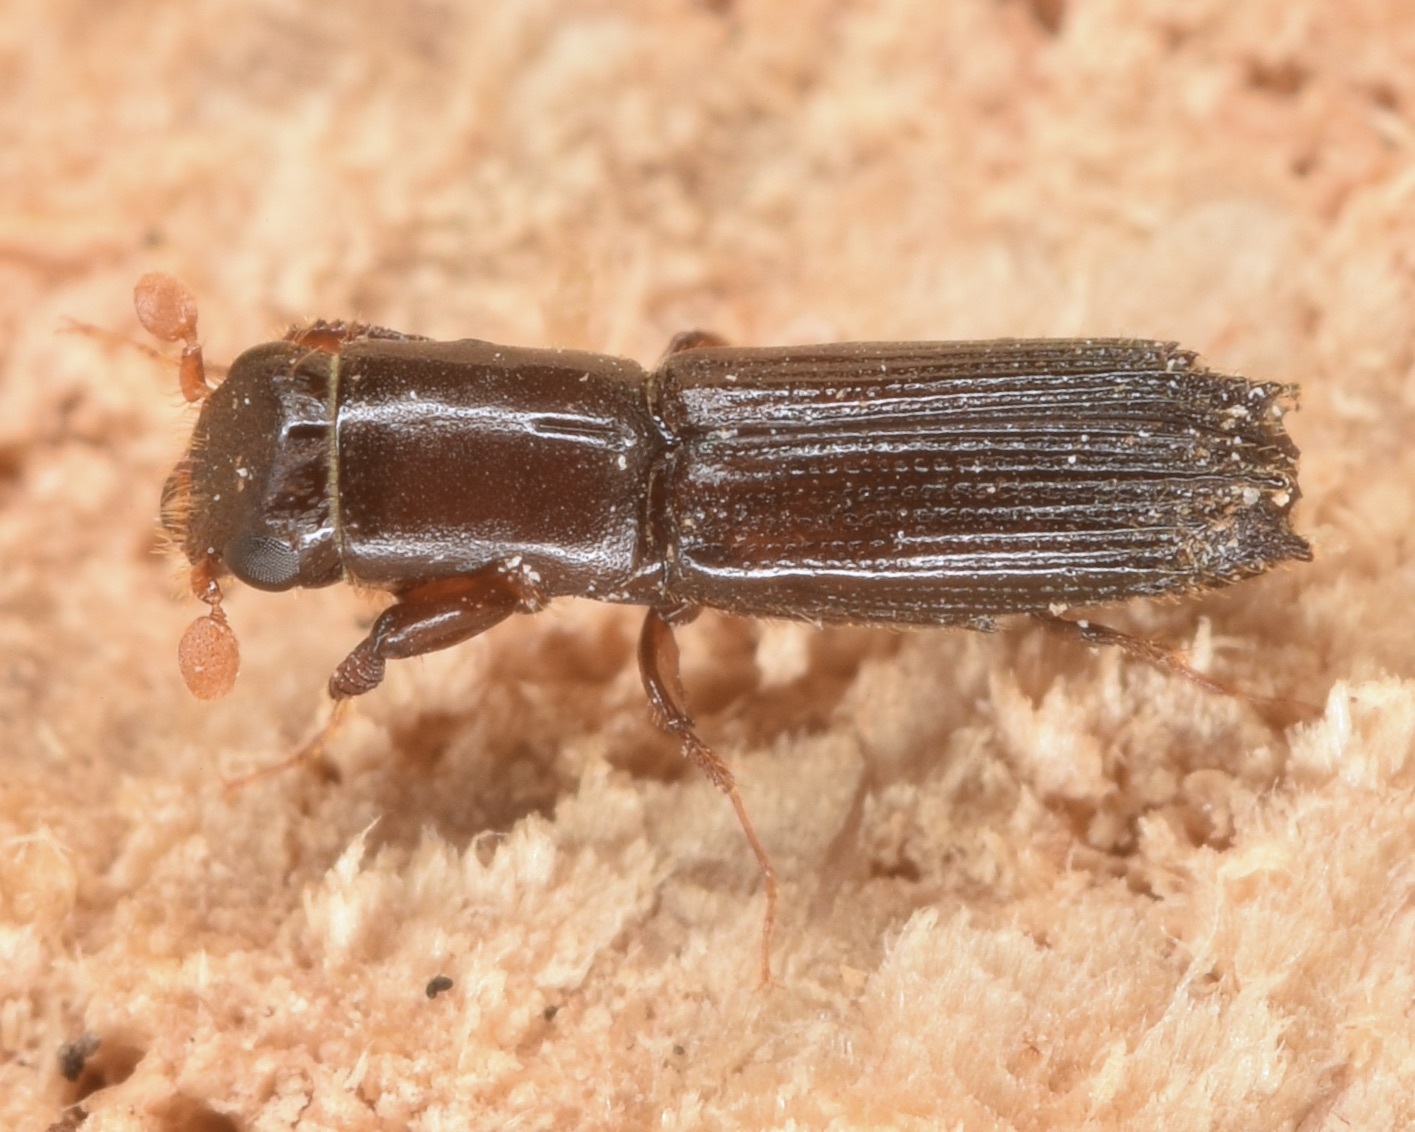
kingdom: Animalia
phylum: Arthropoda
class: Insecta
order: Coleoptera
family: Curculionidae
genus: Oxoplatypus
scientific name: Oxoplatypus quadridentatus
